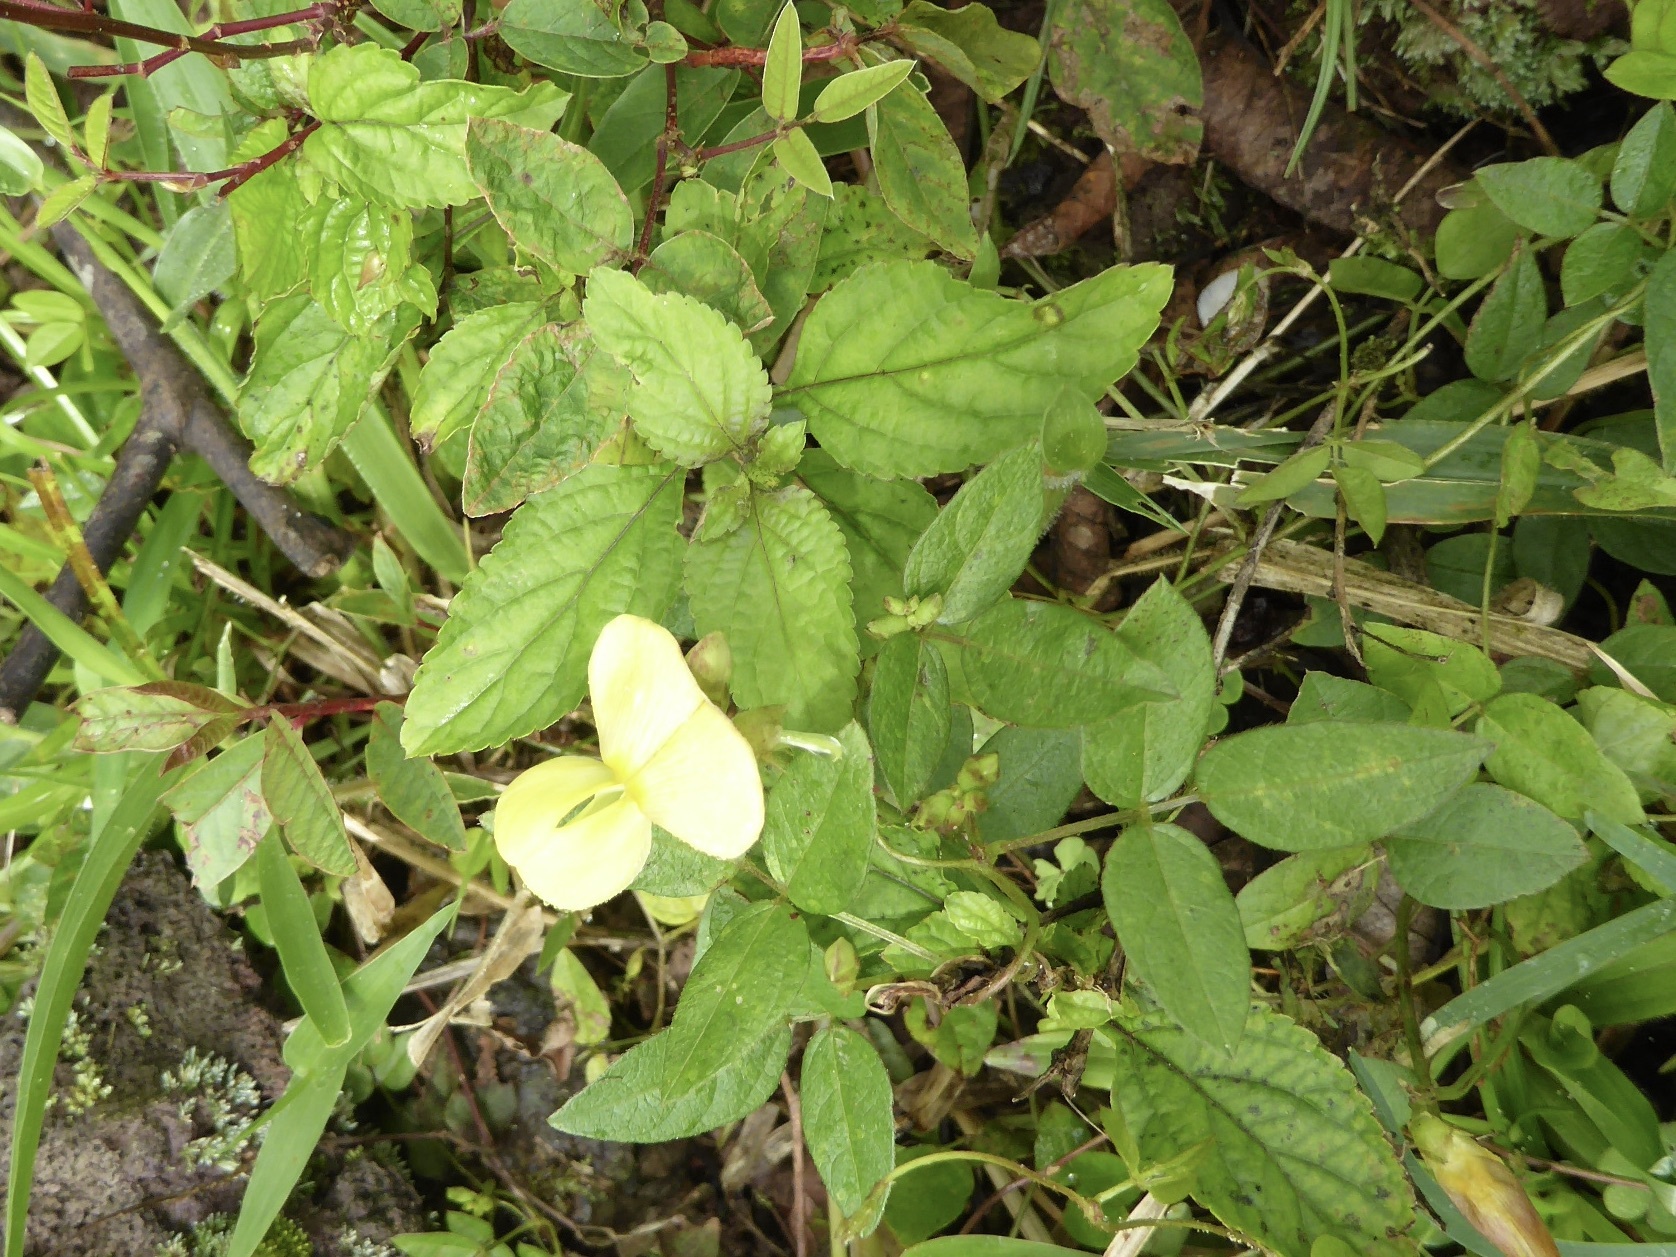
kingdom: Plantae
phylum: Tracheophyta
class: Magnoliopsida
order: Fabales
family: Fabaceae
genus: Vigna
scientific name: Vigna luteola
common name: Hairypod cowpea
